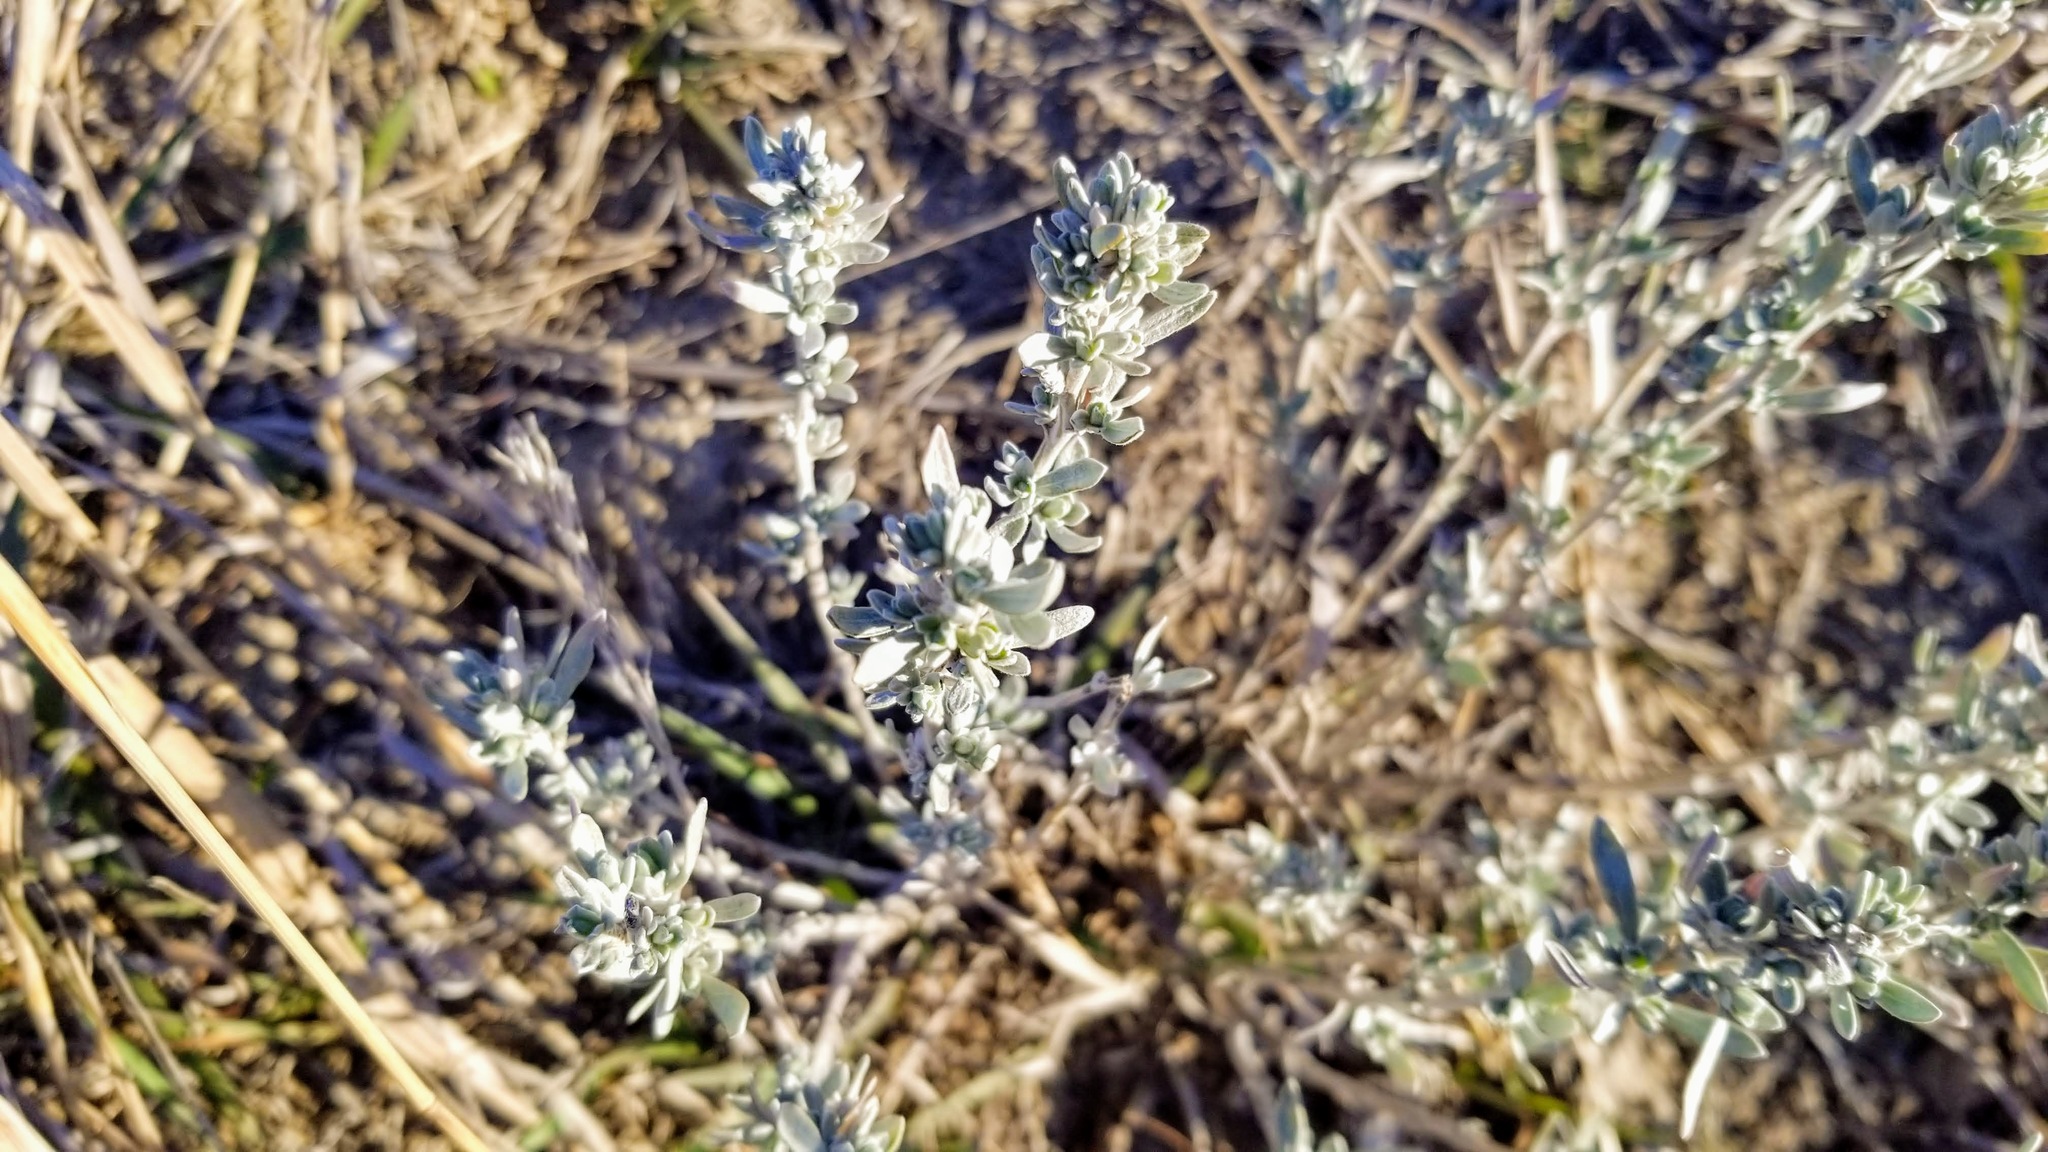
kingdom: Plantae
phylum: Tracheophyta
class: Magnoliopsida
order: Asterales
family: Asteraceae
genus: Artemisia
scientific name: Artemisia cana
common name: Silver sagebrush
